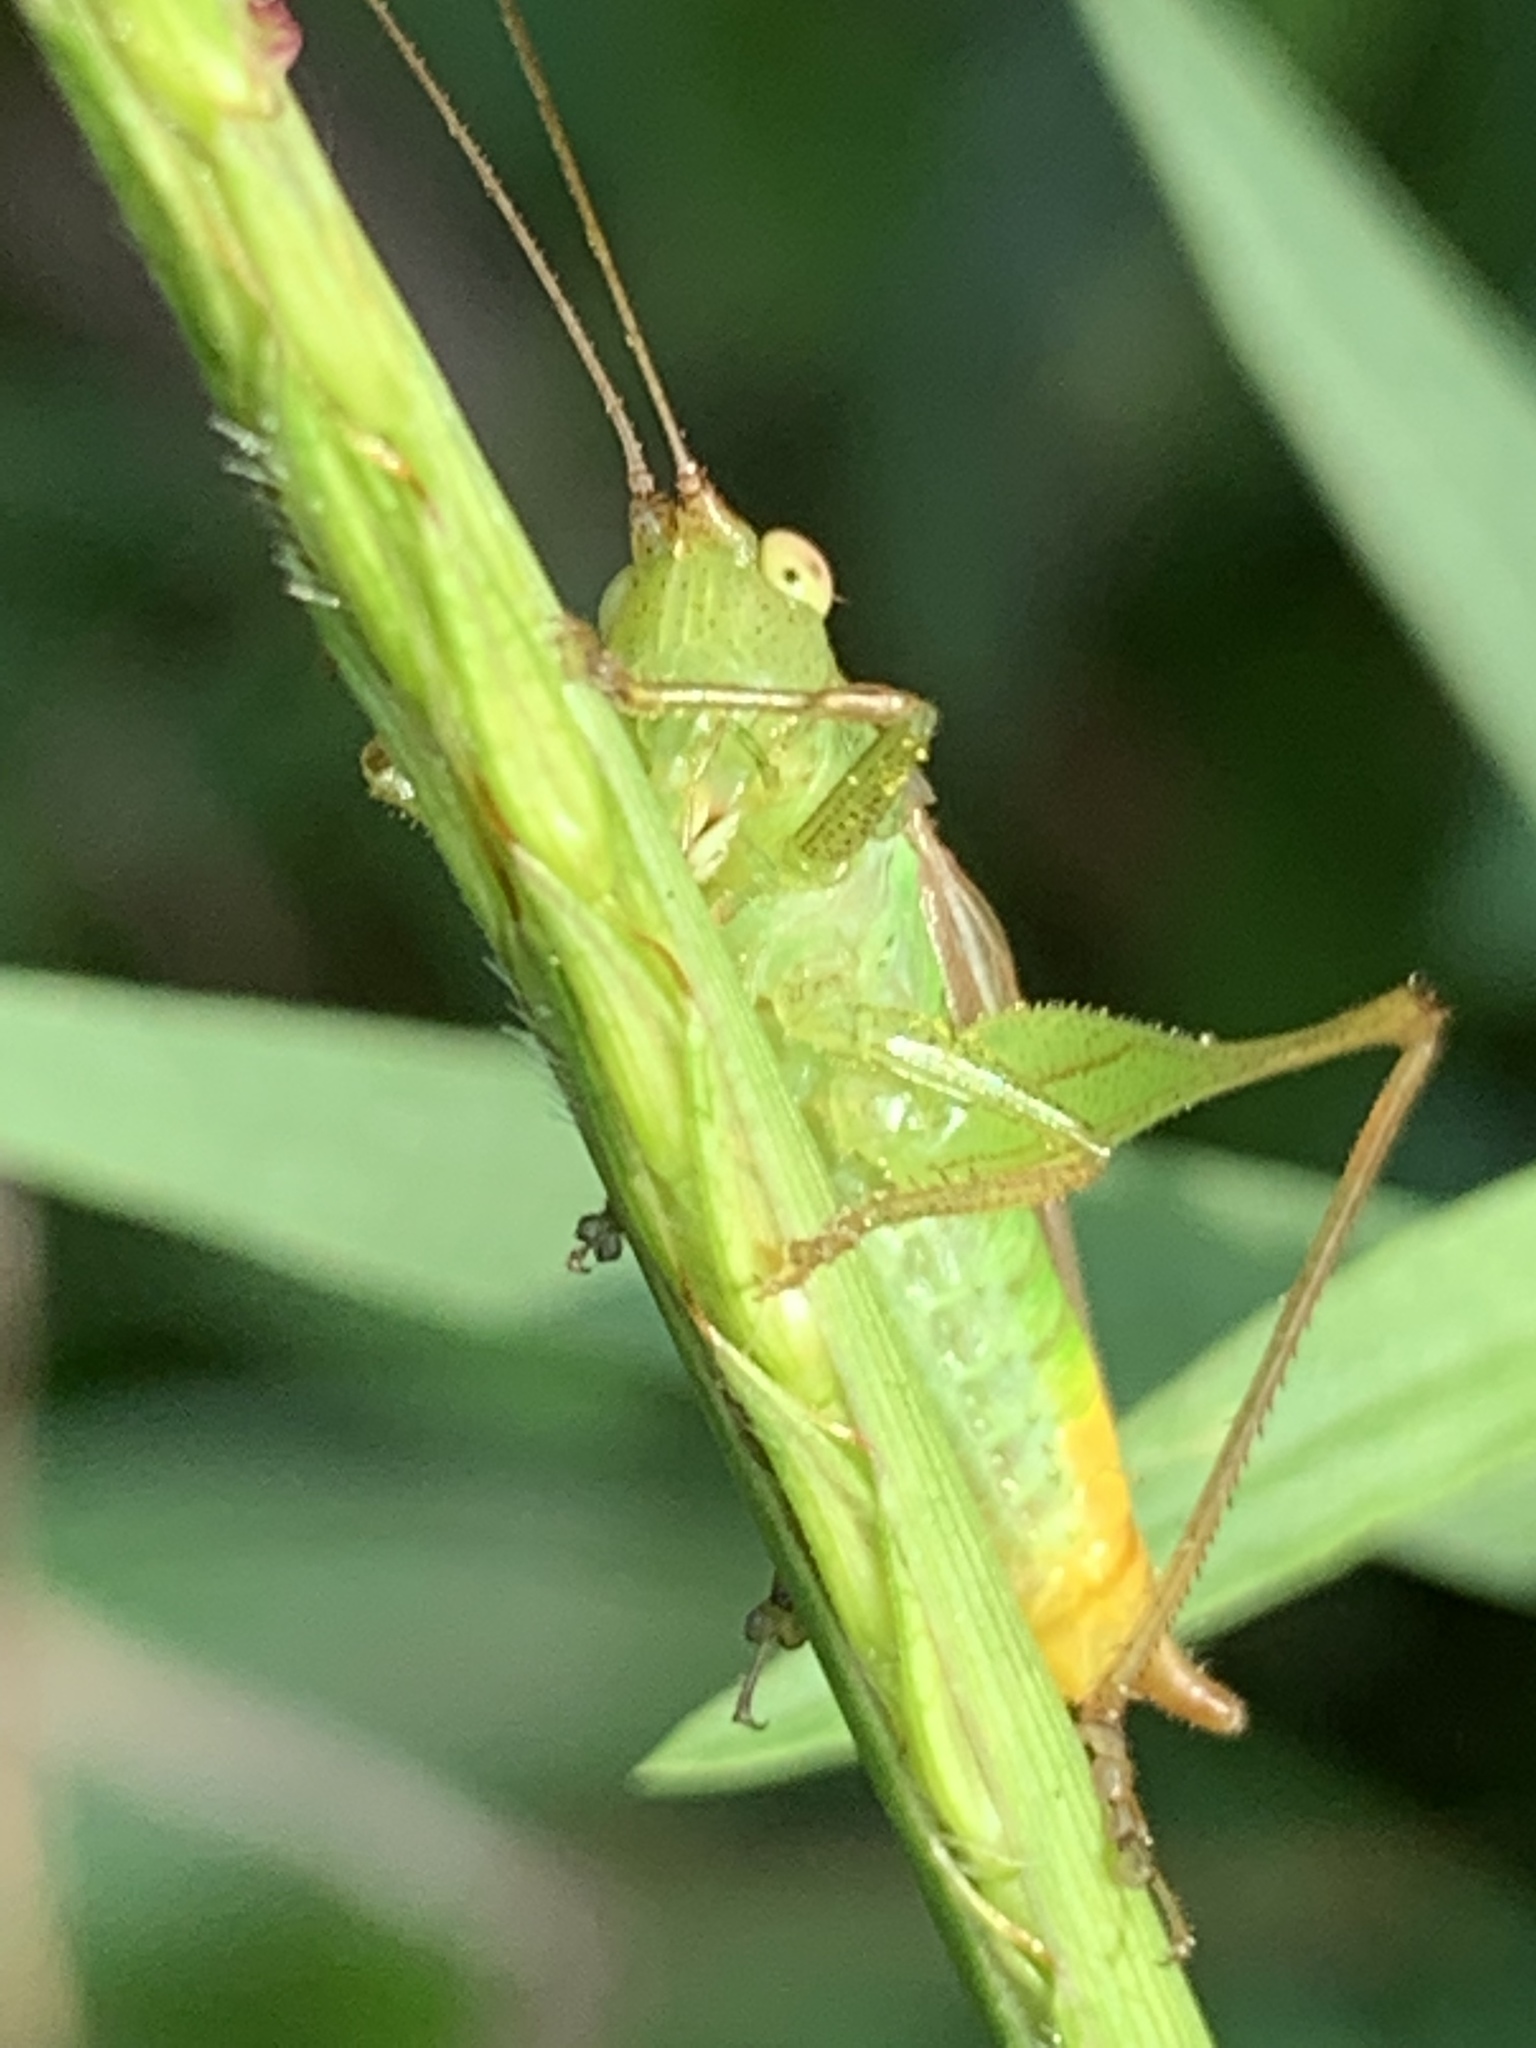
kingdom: Animalia
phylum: Arthropoda
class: Insecta
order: Orthoptera
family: Tettigoniidae
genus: Conocephalus
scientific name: Conocephalus brevipennis
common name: Short-winged meadow katydid
